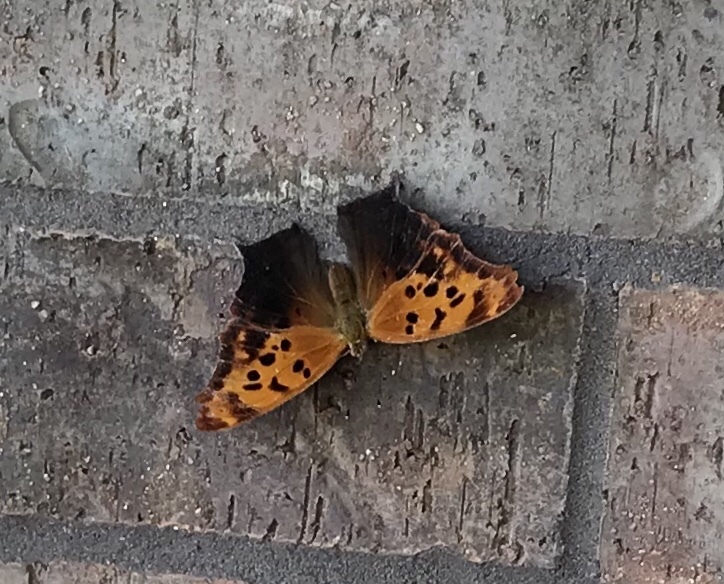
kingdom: Animalia
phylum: Arthropoda
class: Insecta
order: Lepidoptera
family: Nymphalidae
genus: Polygonia
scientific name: Polygonia interrogationis
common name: Question mark
